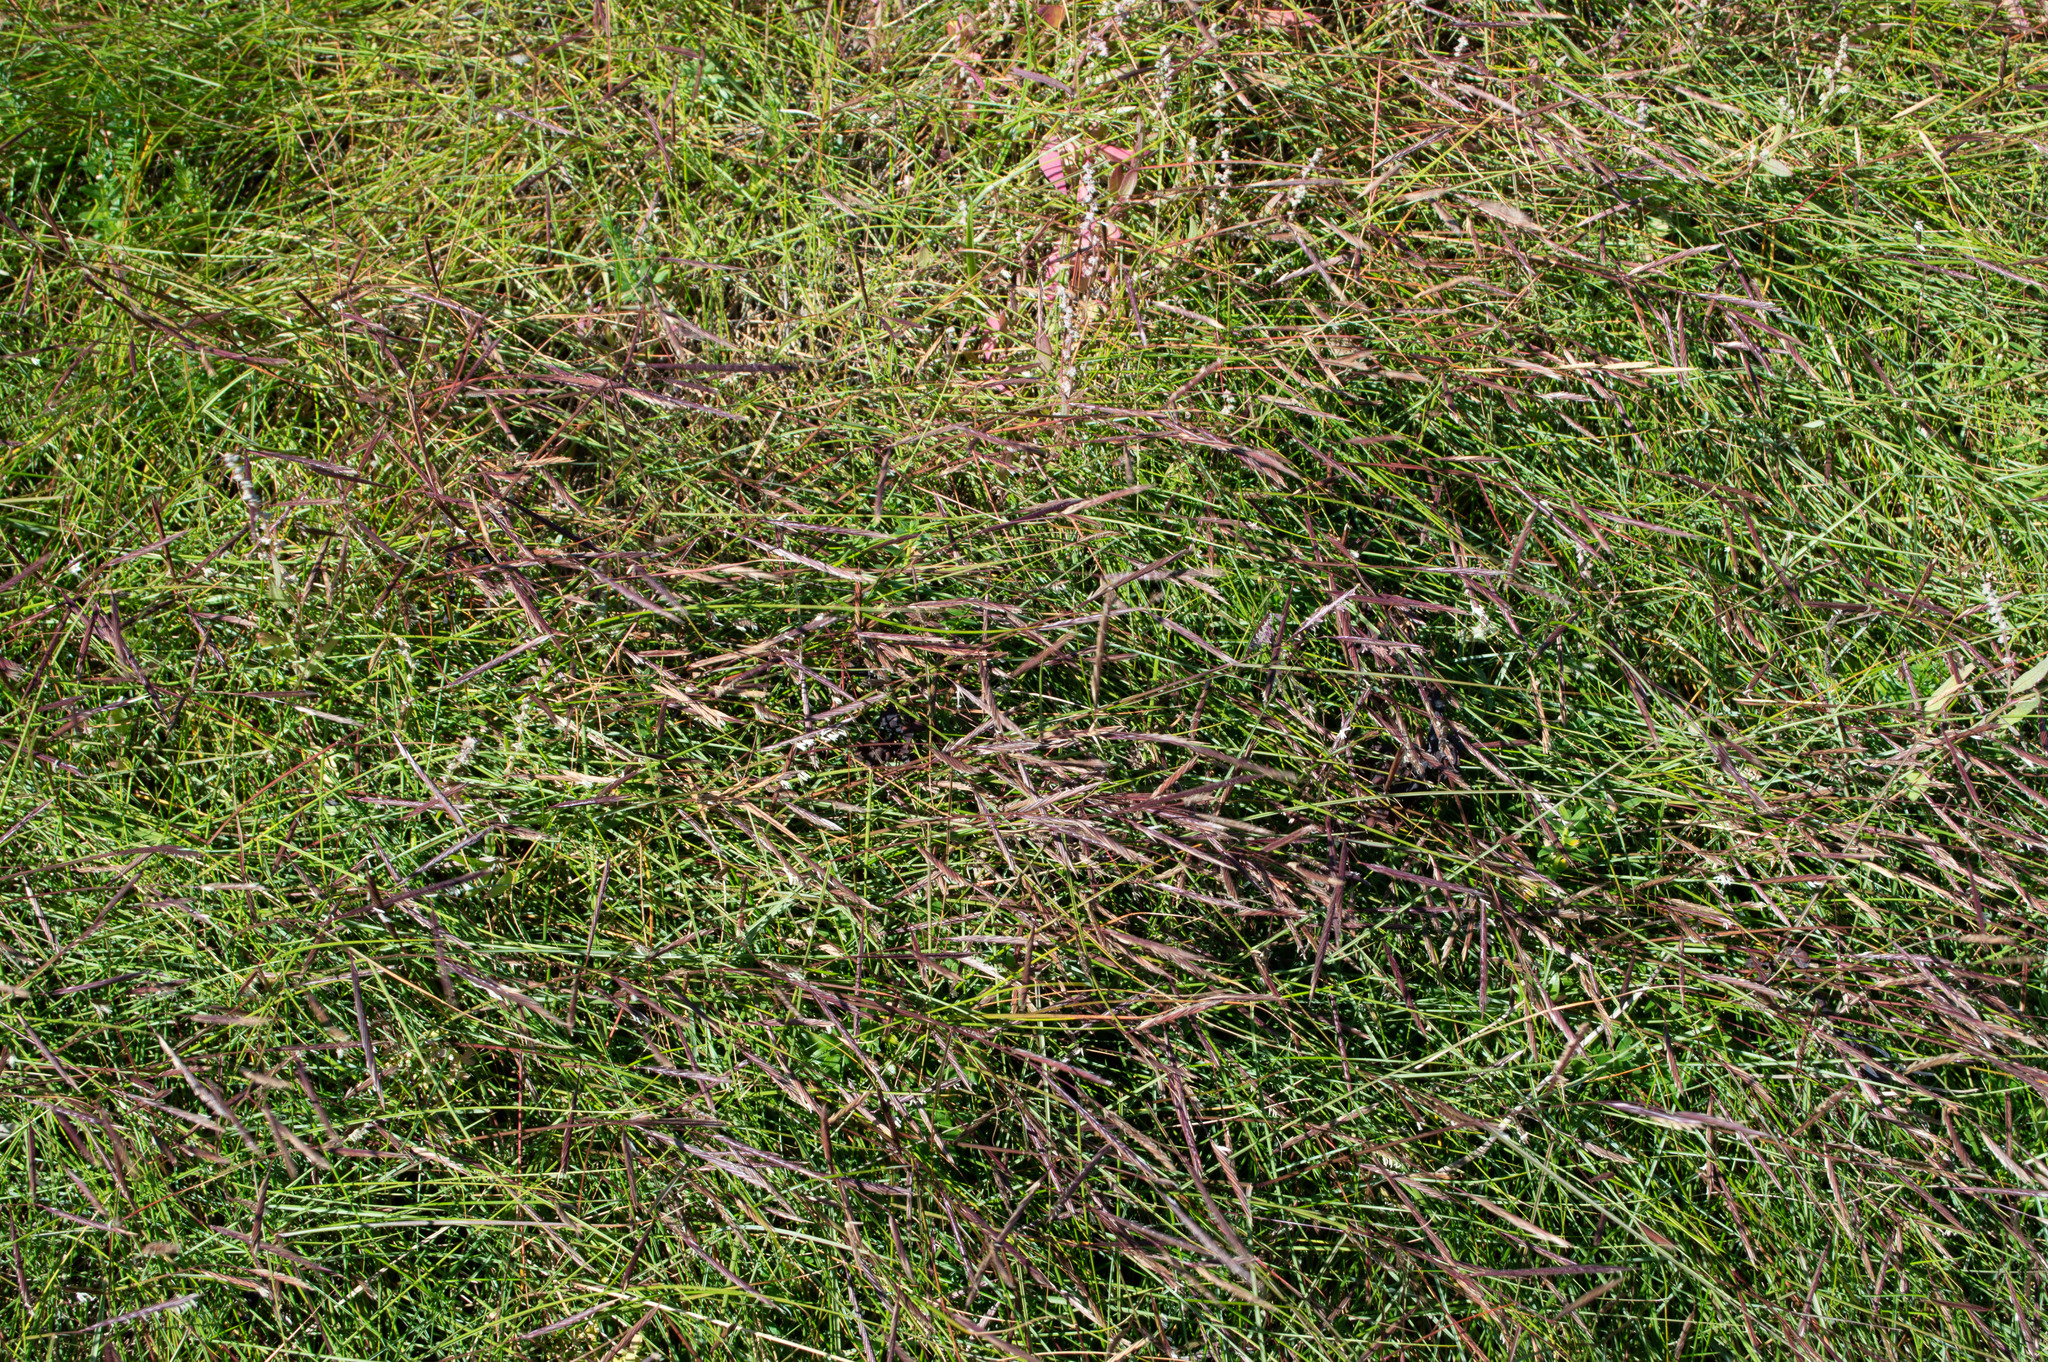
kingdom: Plantae
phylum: Tracheophyta
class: Liliopsida
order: Poales
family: Poaceae
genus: Sporobolus
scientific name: Sporobolus pumilus
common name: Highwater grass
